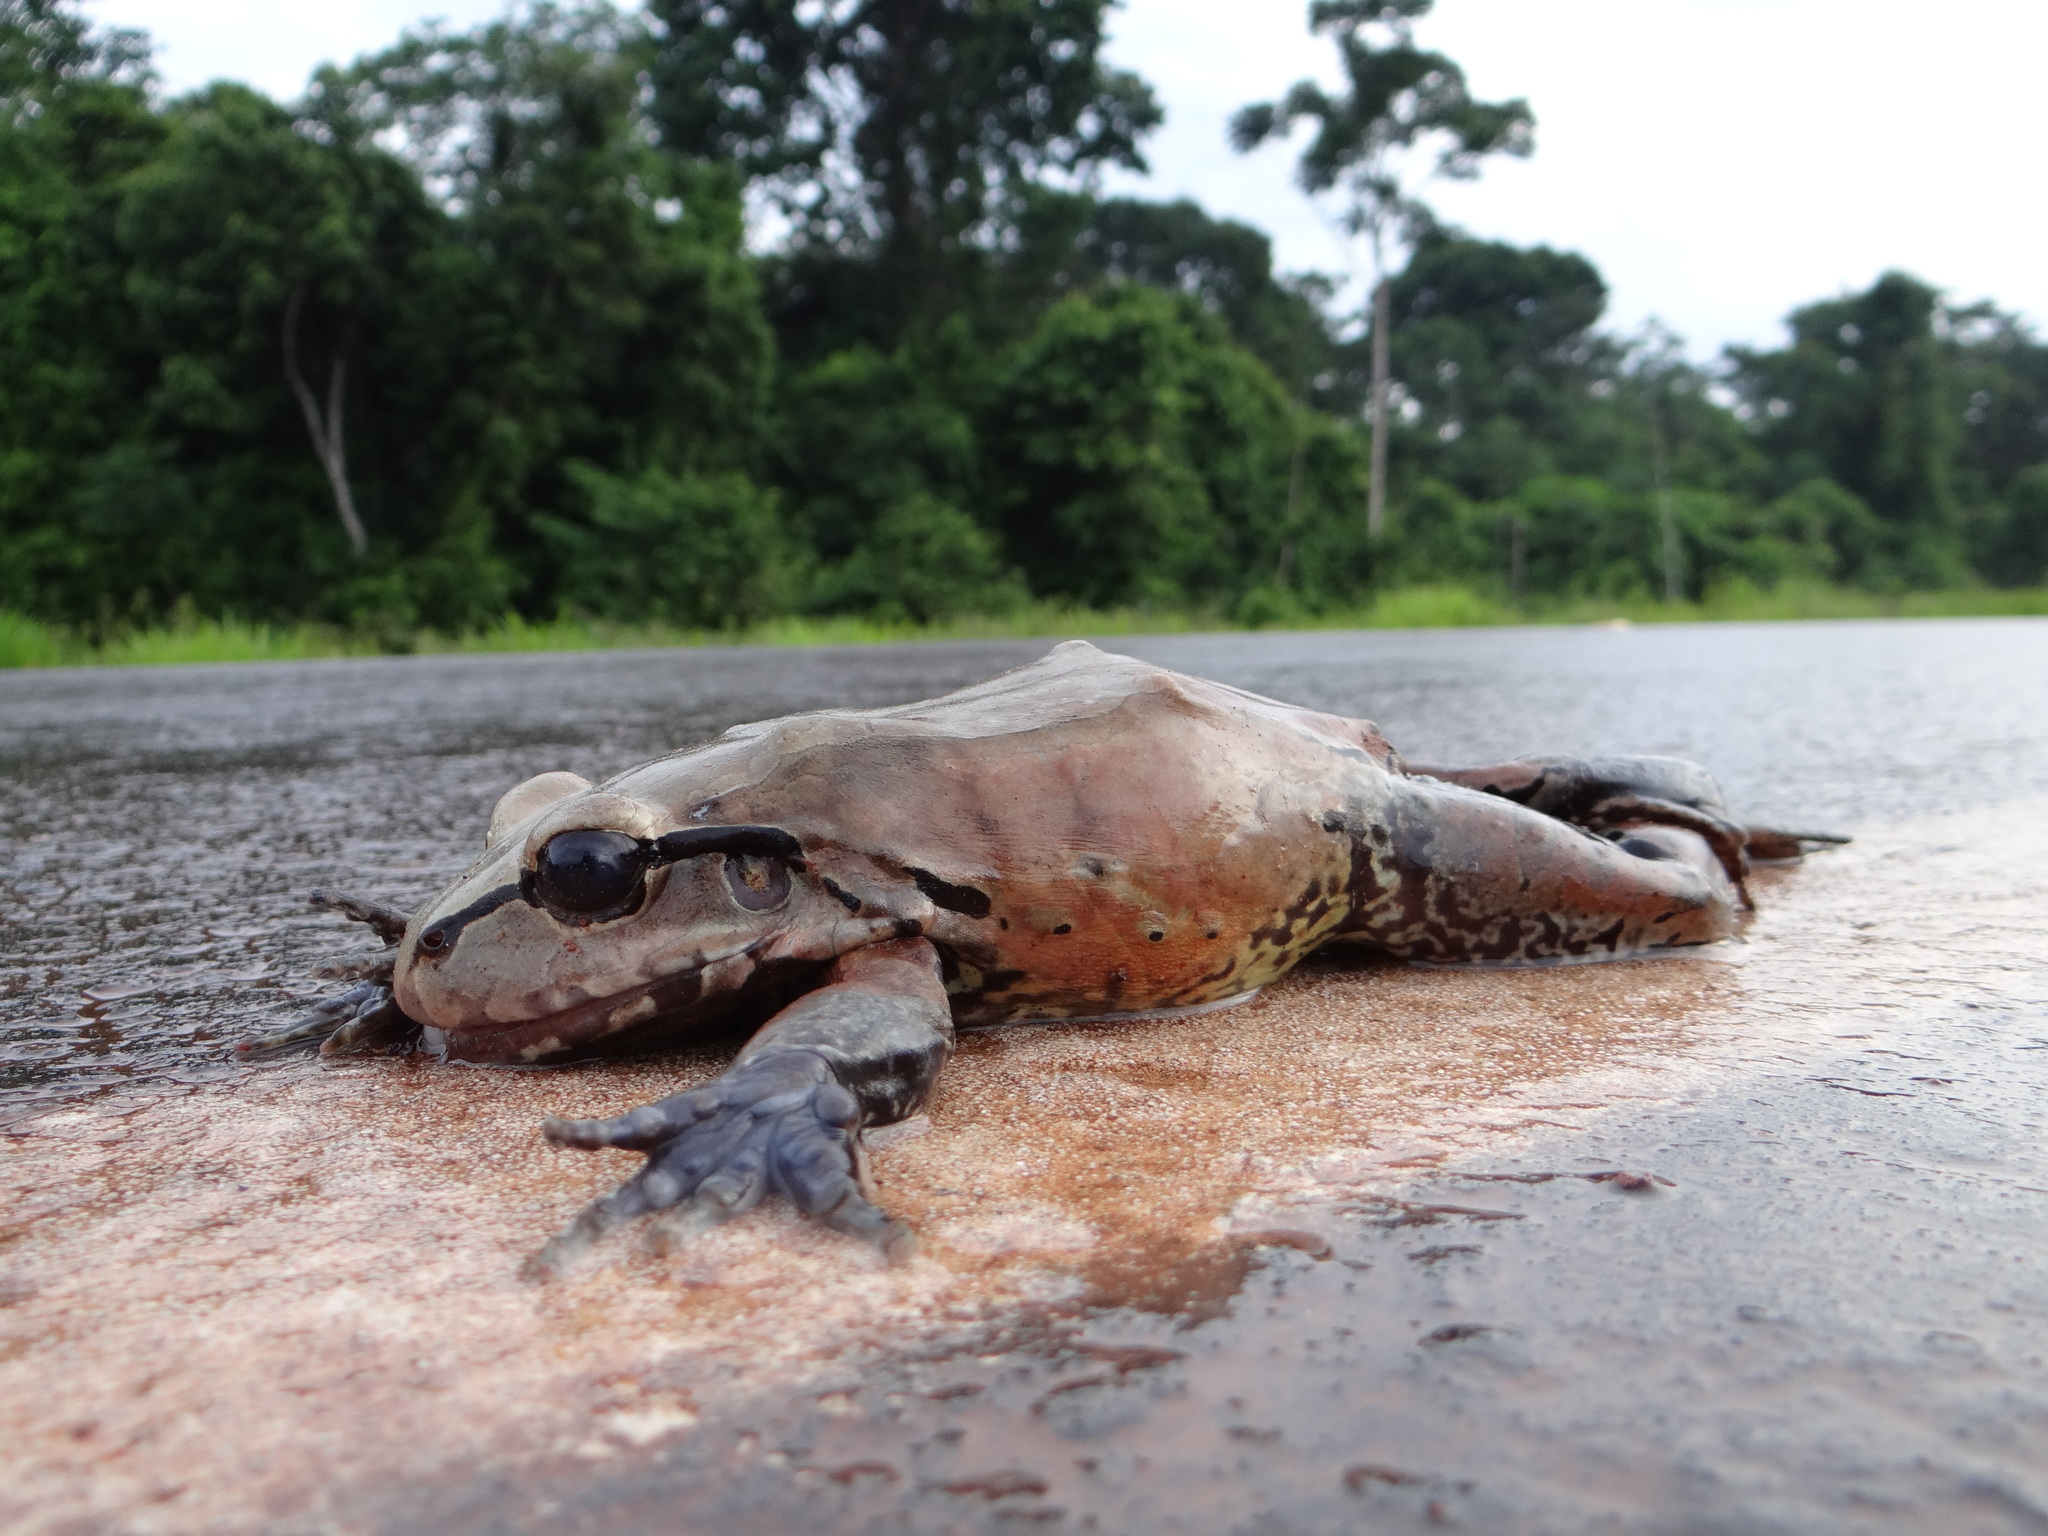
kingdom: Animalia
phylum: Chordata
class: Amphibia
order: Anura
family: Leptodactylidae
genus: Leptodactylus
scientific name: Leptodactylus knudseni
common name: Knudsen's frog
